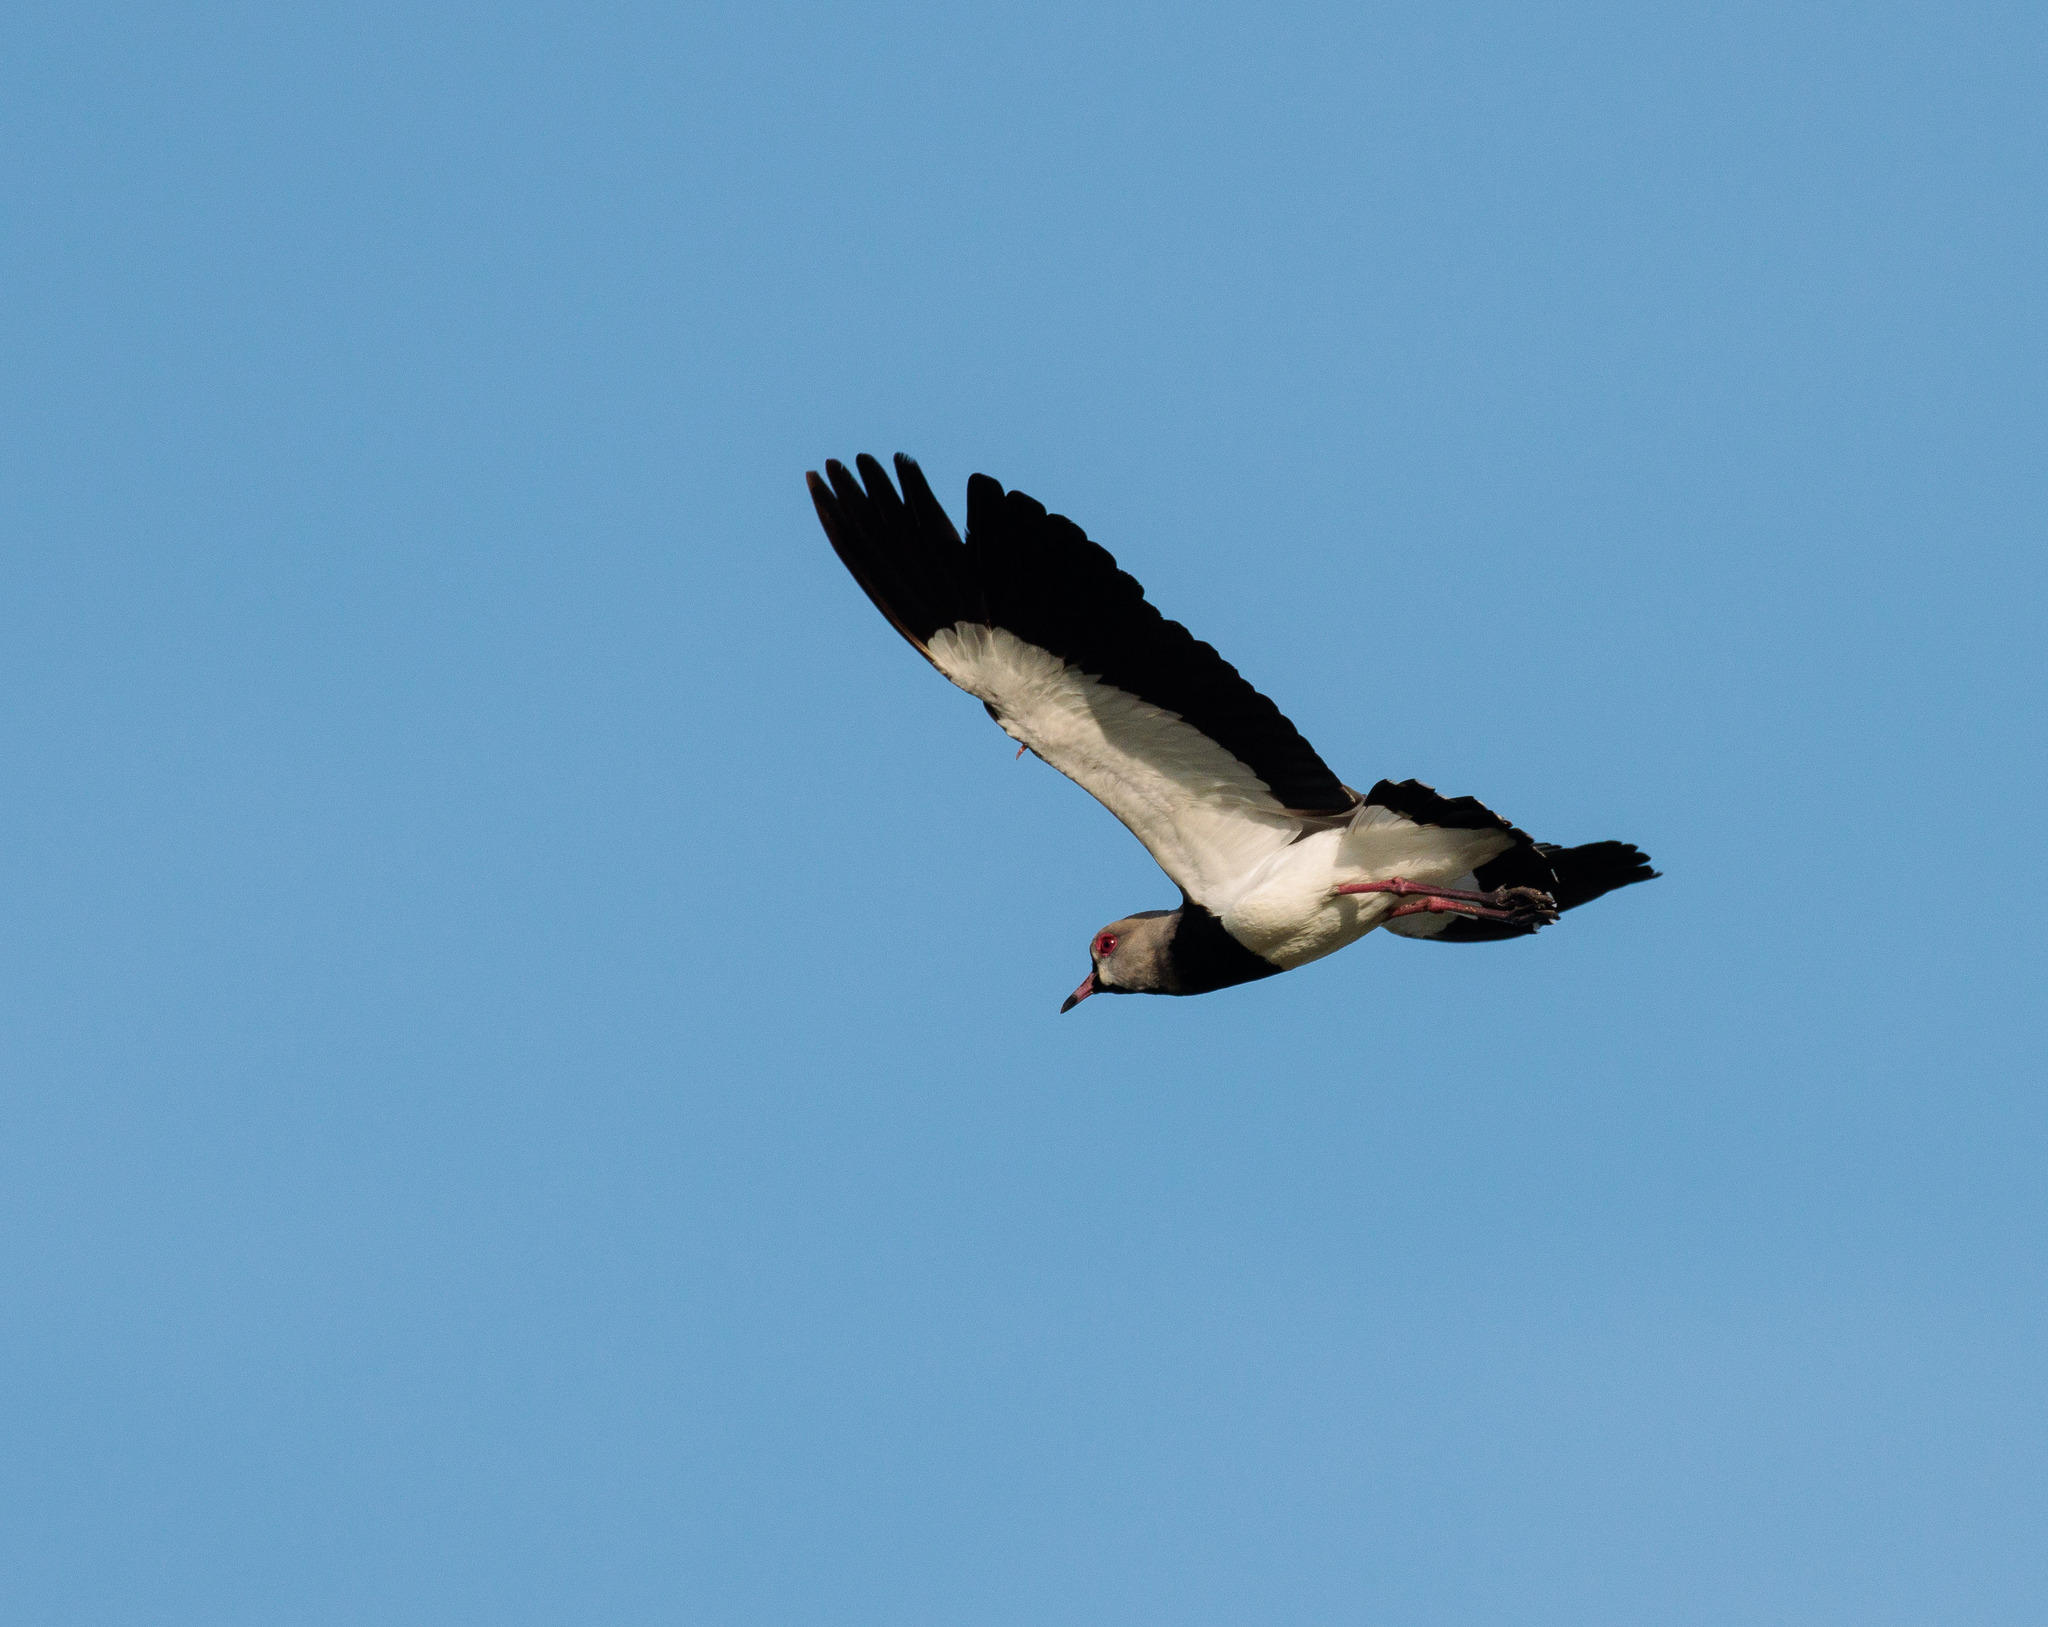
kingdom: Animalia
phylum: Chordata
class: Aves
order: Charadriiformes
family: Charadriidae
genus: Vanellus
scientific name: Vanellus chilensis
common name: Southern lapwing
